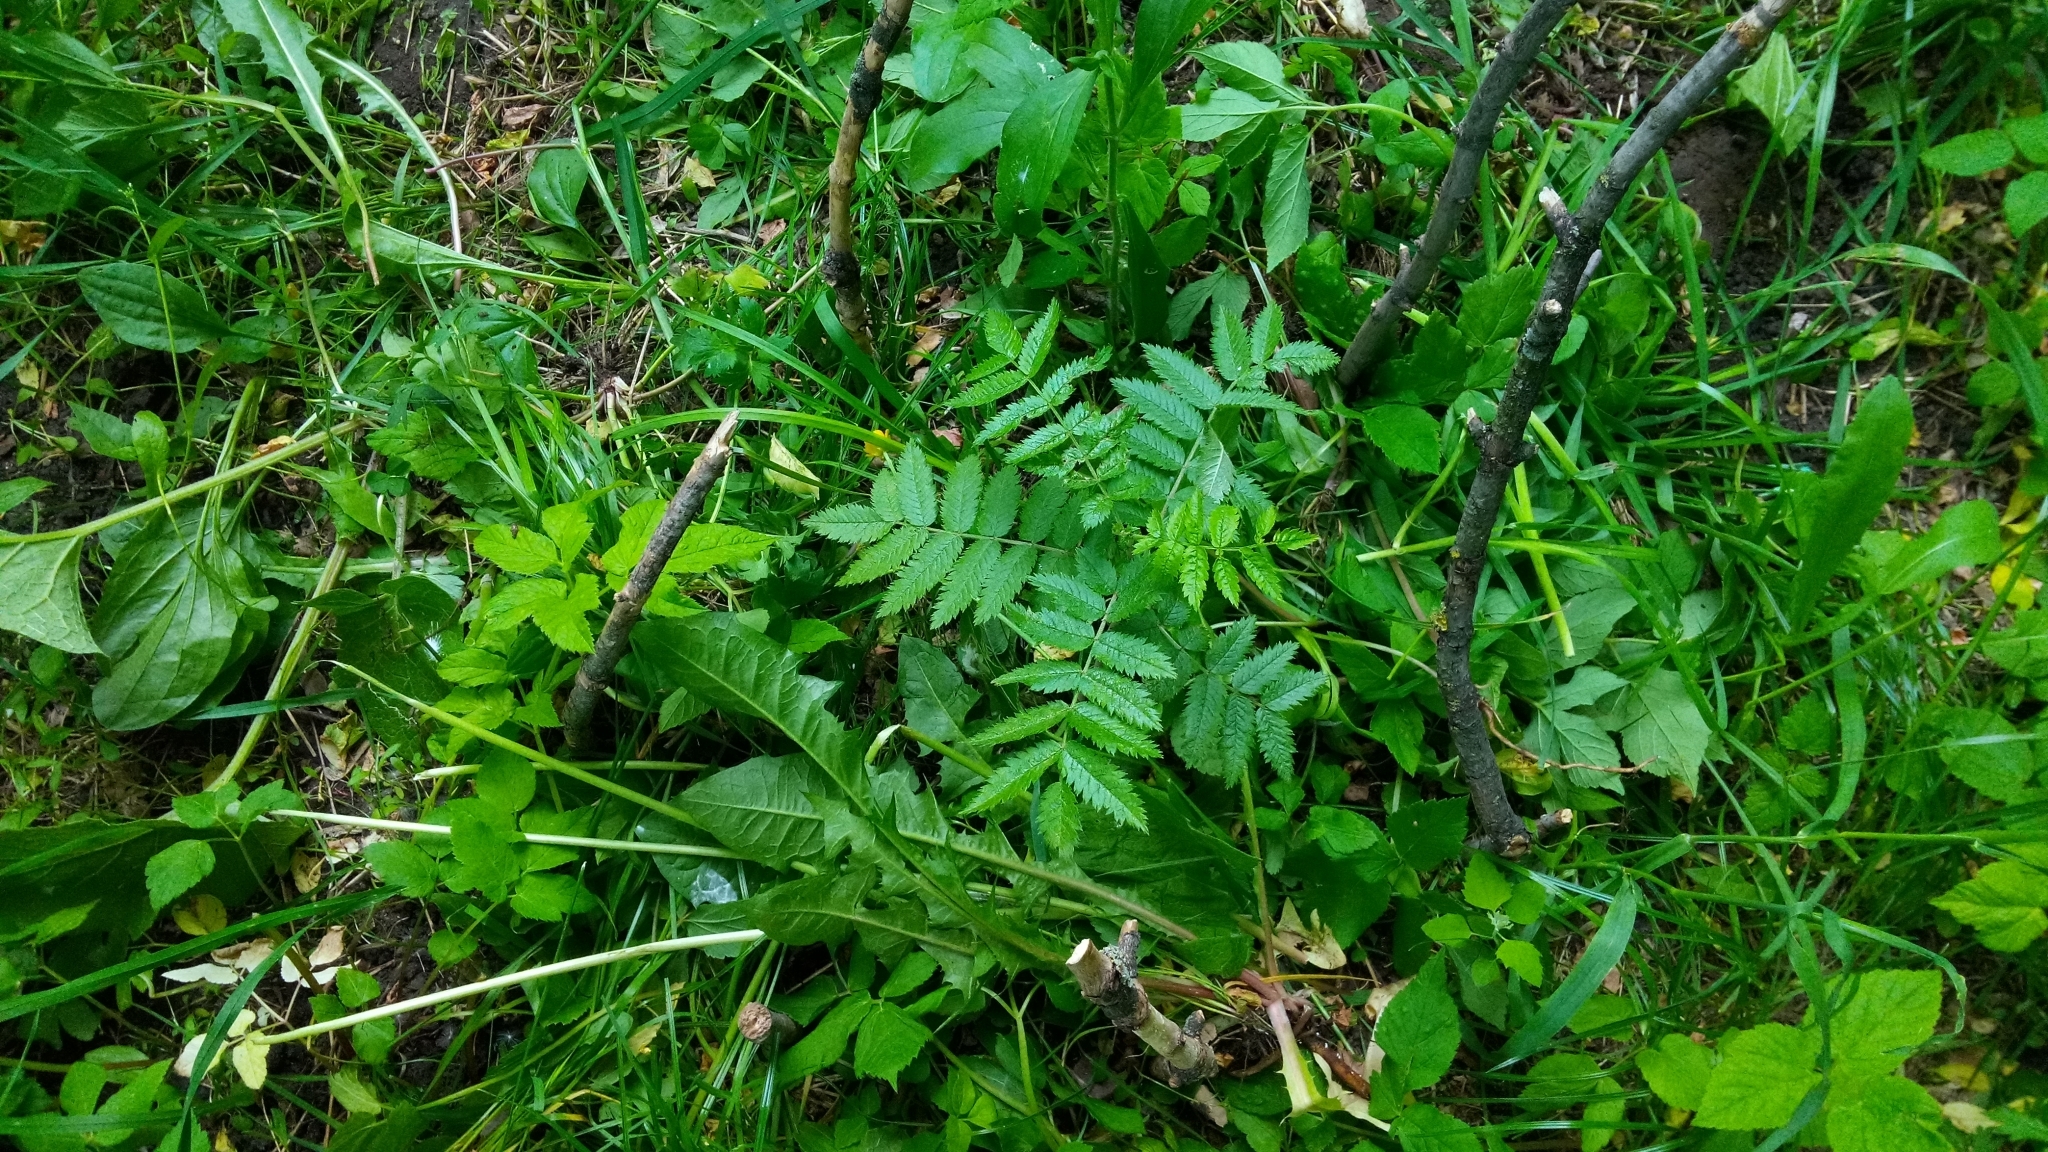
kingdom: Plantae
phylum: Tracheophyta
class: Magnoliopsida
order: Rosales
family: Rosaceae
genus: Sorbus
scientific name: Sorbus aucuparia
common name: Rowan
